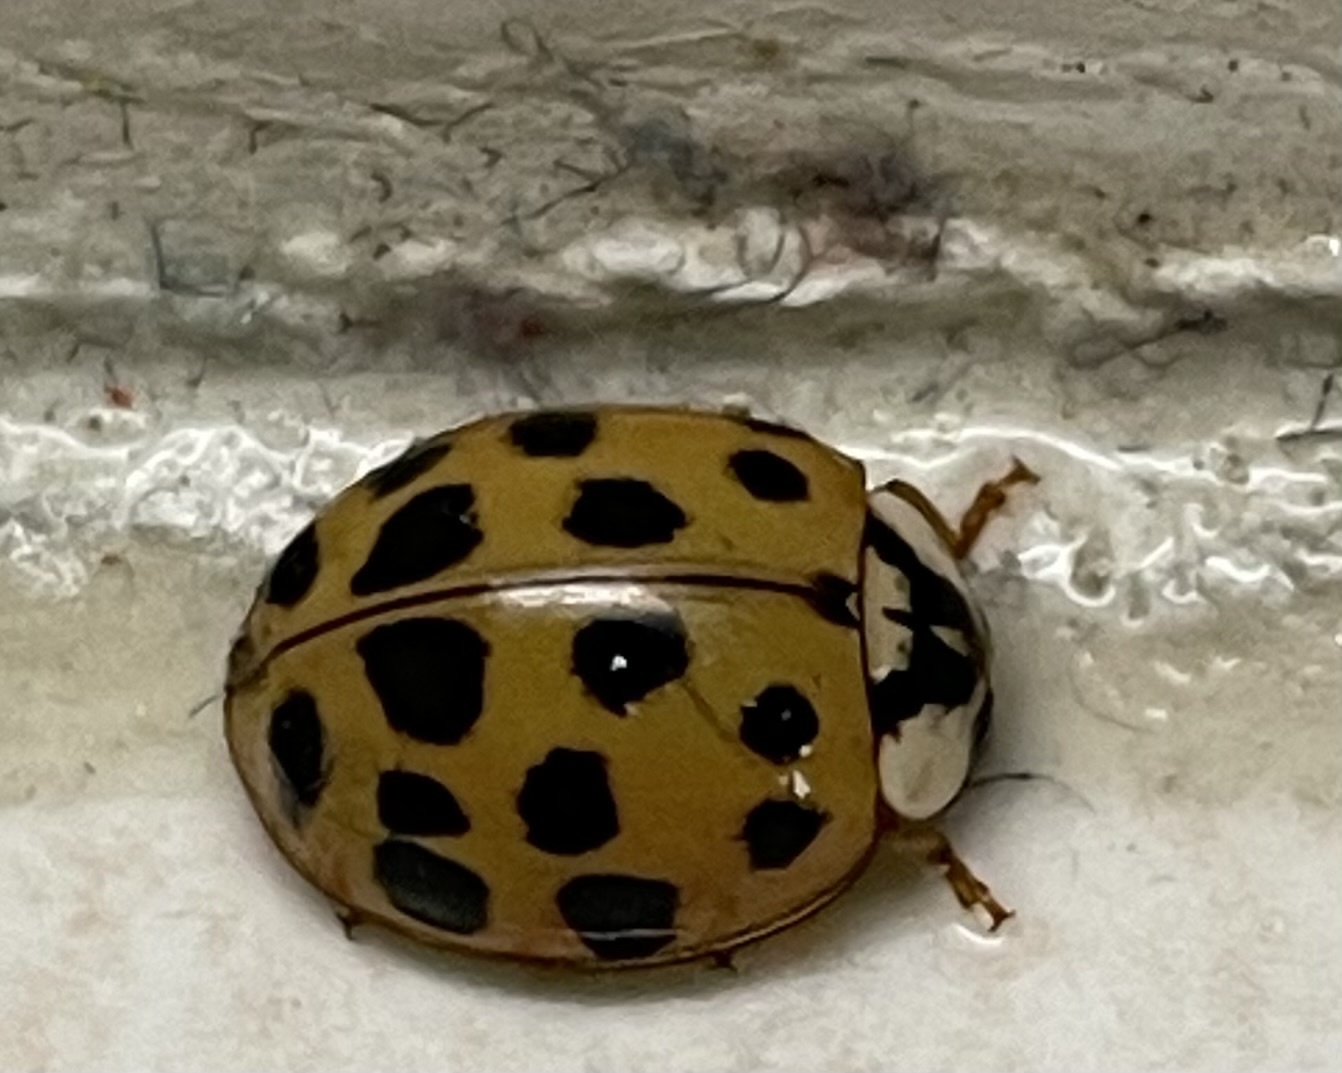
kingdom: Animalia
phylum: Arthropoda
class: Insecta
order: Coleoptera
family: Coccinellidae
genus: Harmonia
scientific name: Harmonia axyridis
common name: Harlequin ladybird
